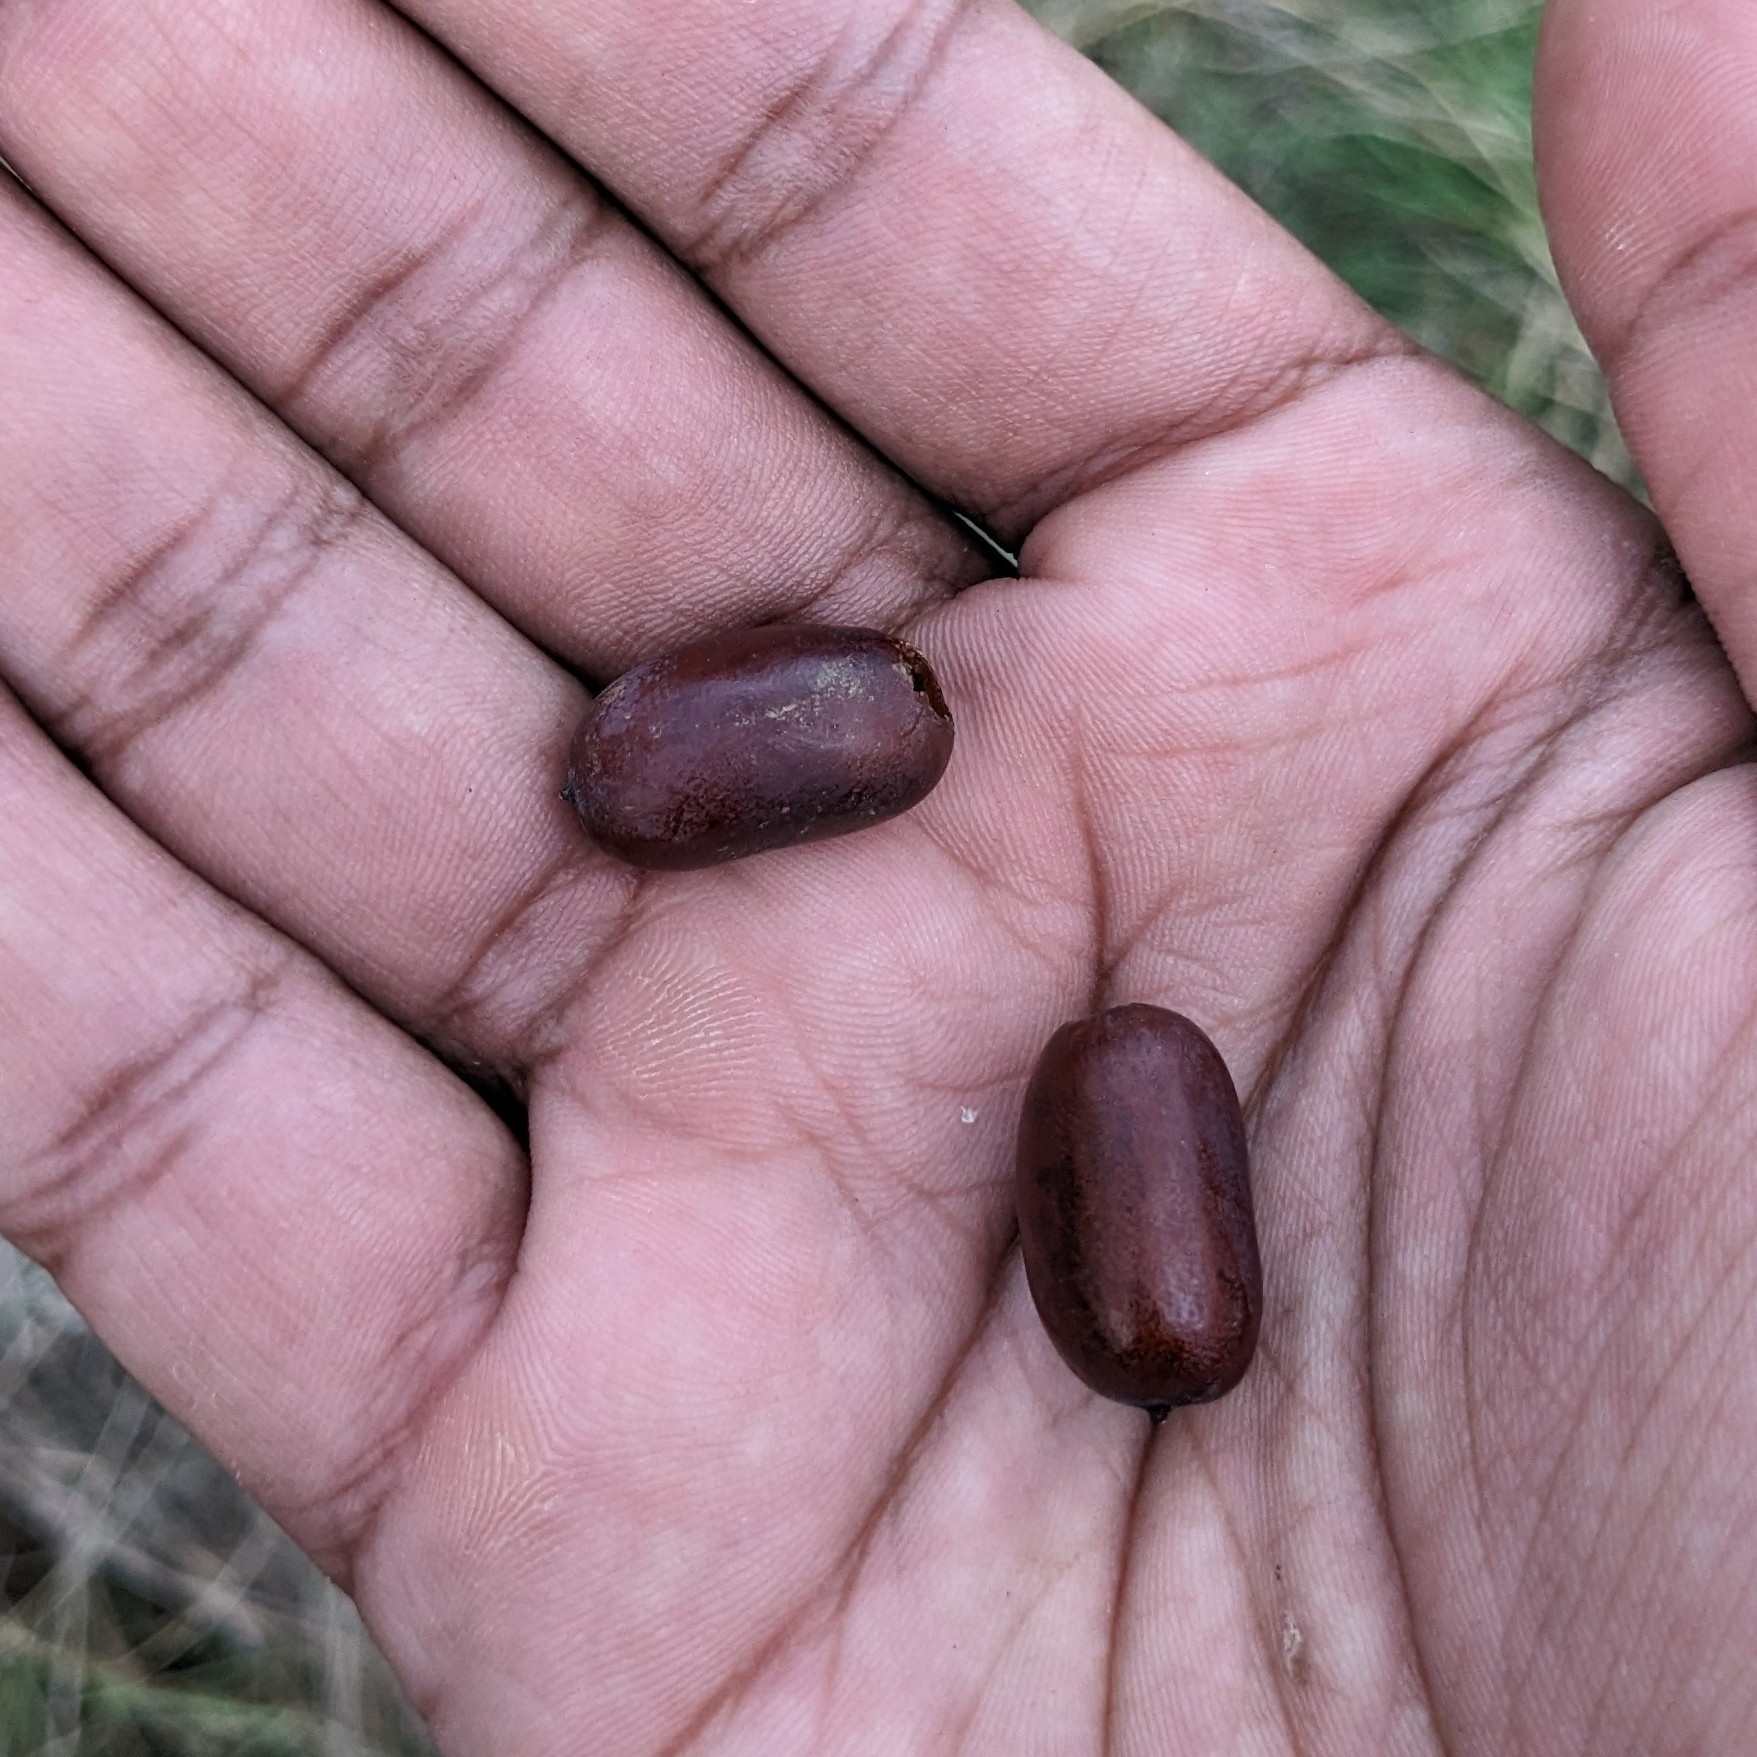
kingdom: Plantae
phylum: Tracheophyta
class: Liliopsida
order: Arecales
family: Arecaceae
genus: Phoenix
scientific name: Phoenix sylvestris
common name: Wild date palm
